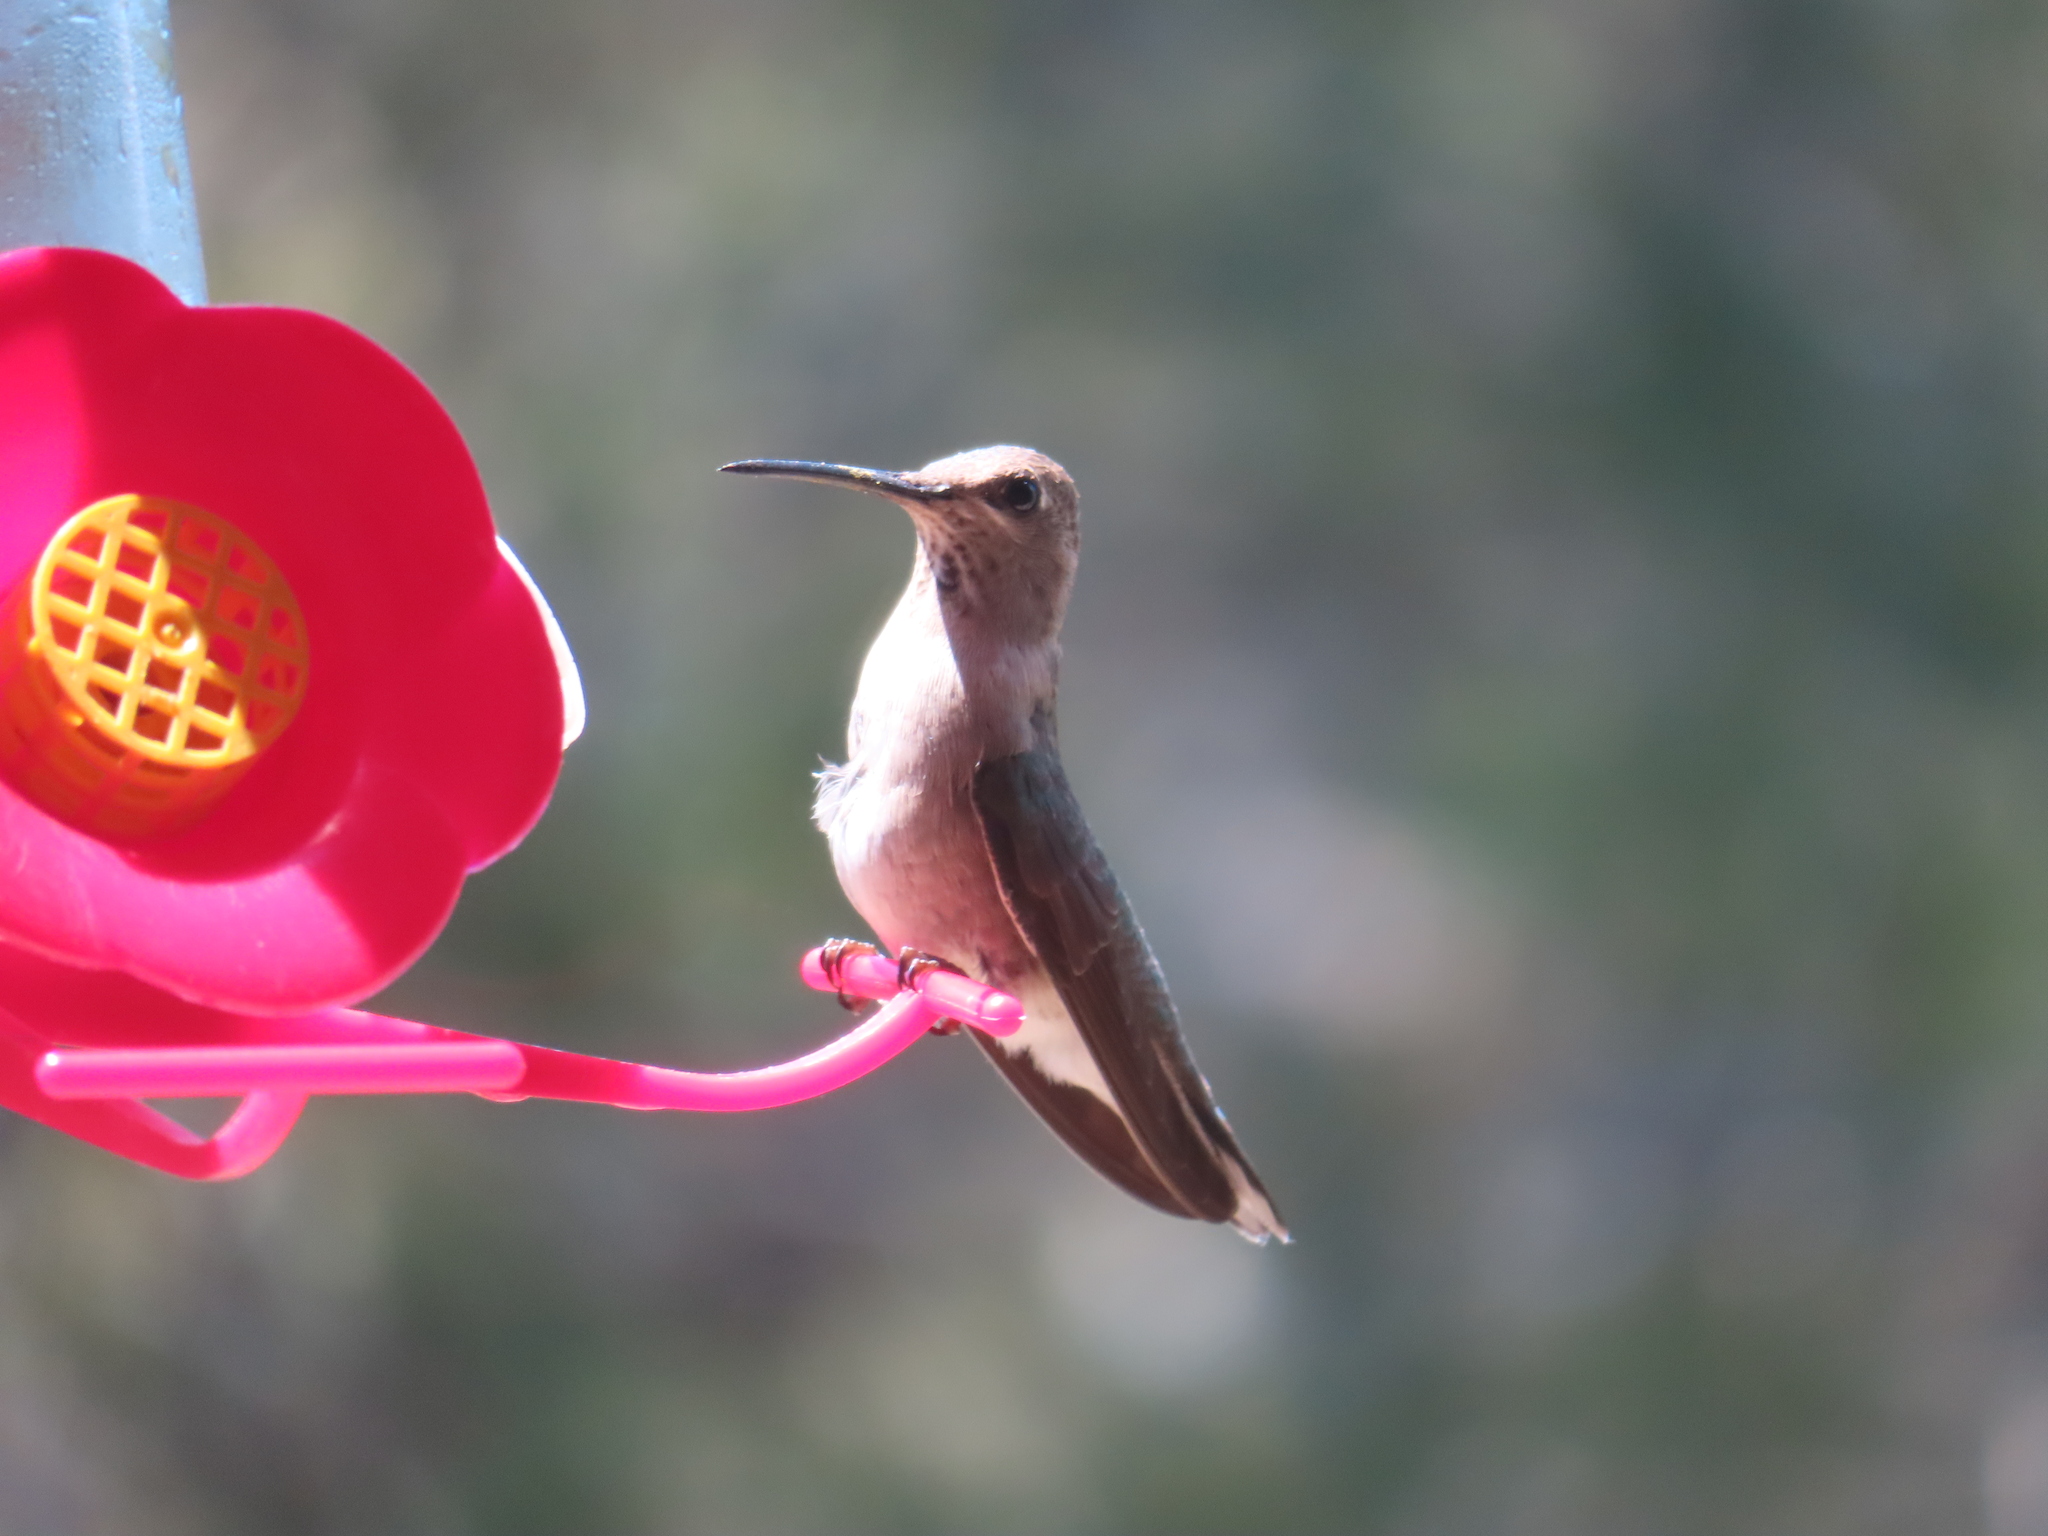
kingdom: Animalia
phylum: Chordata
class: Aves
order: Apodiformes
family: Trochilidae
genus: Archilochus
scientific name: Archilochus alexandri
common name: Black-chinned hummingbird
